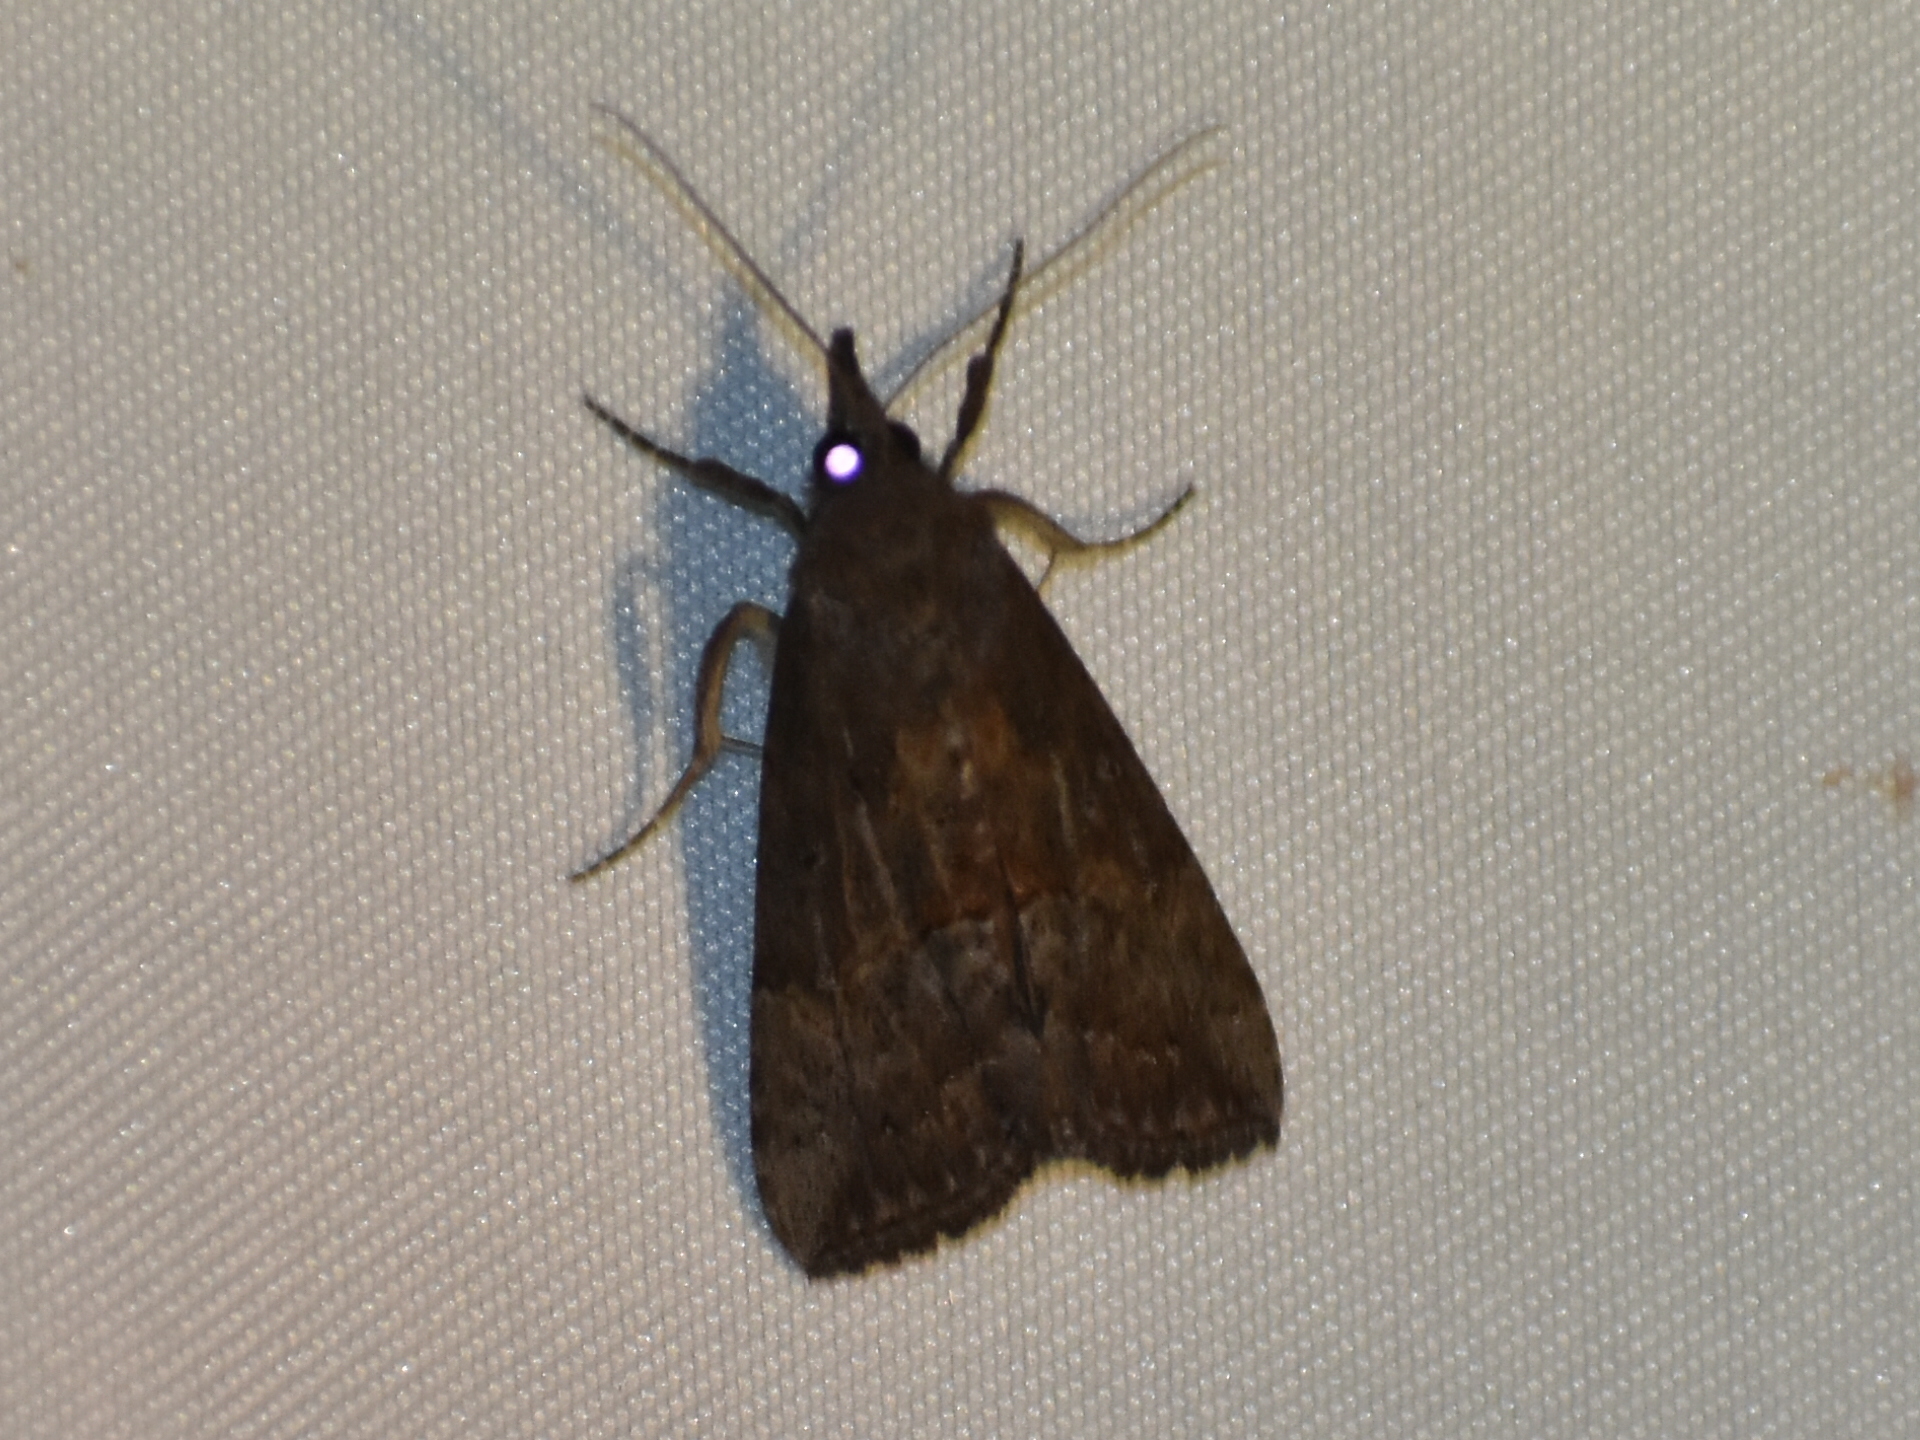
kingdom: Animalia
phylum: Arthropoda
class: Insecta
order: Lepidoptera
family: Erebidae
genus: Hypena
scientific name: Hypena scabra
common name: Green cloverworm
